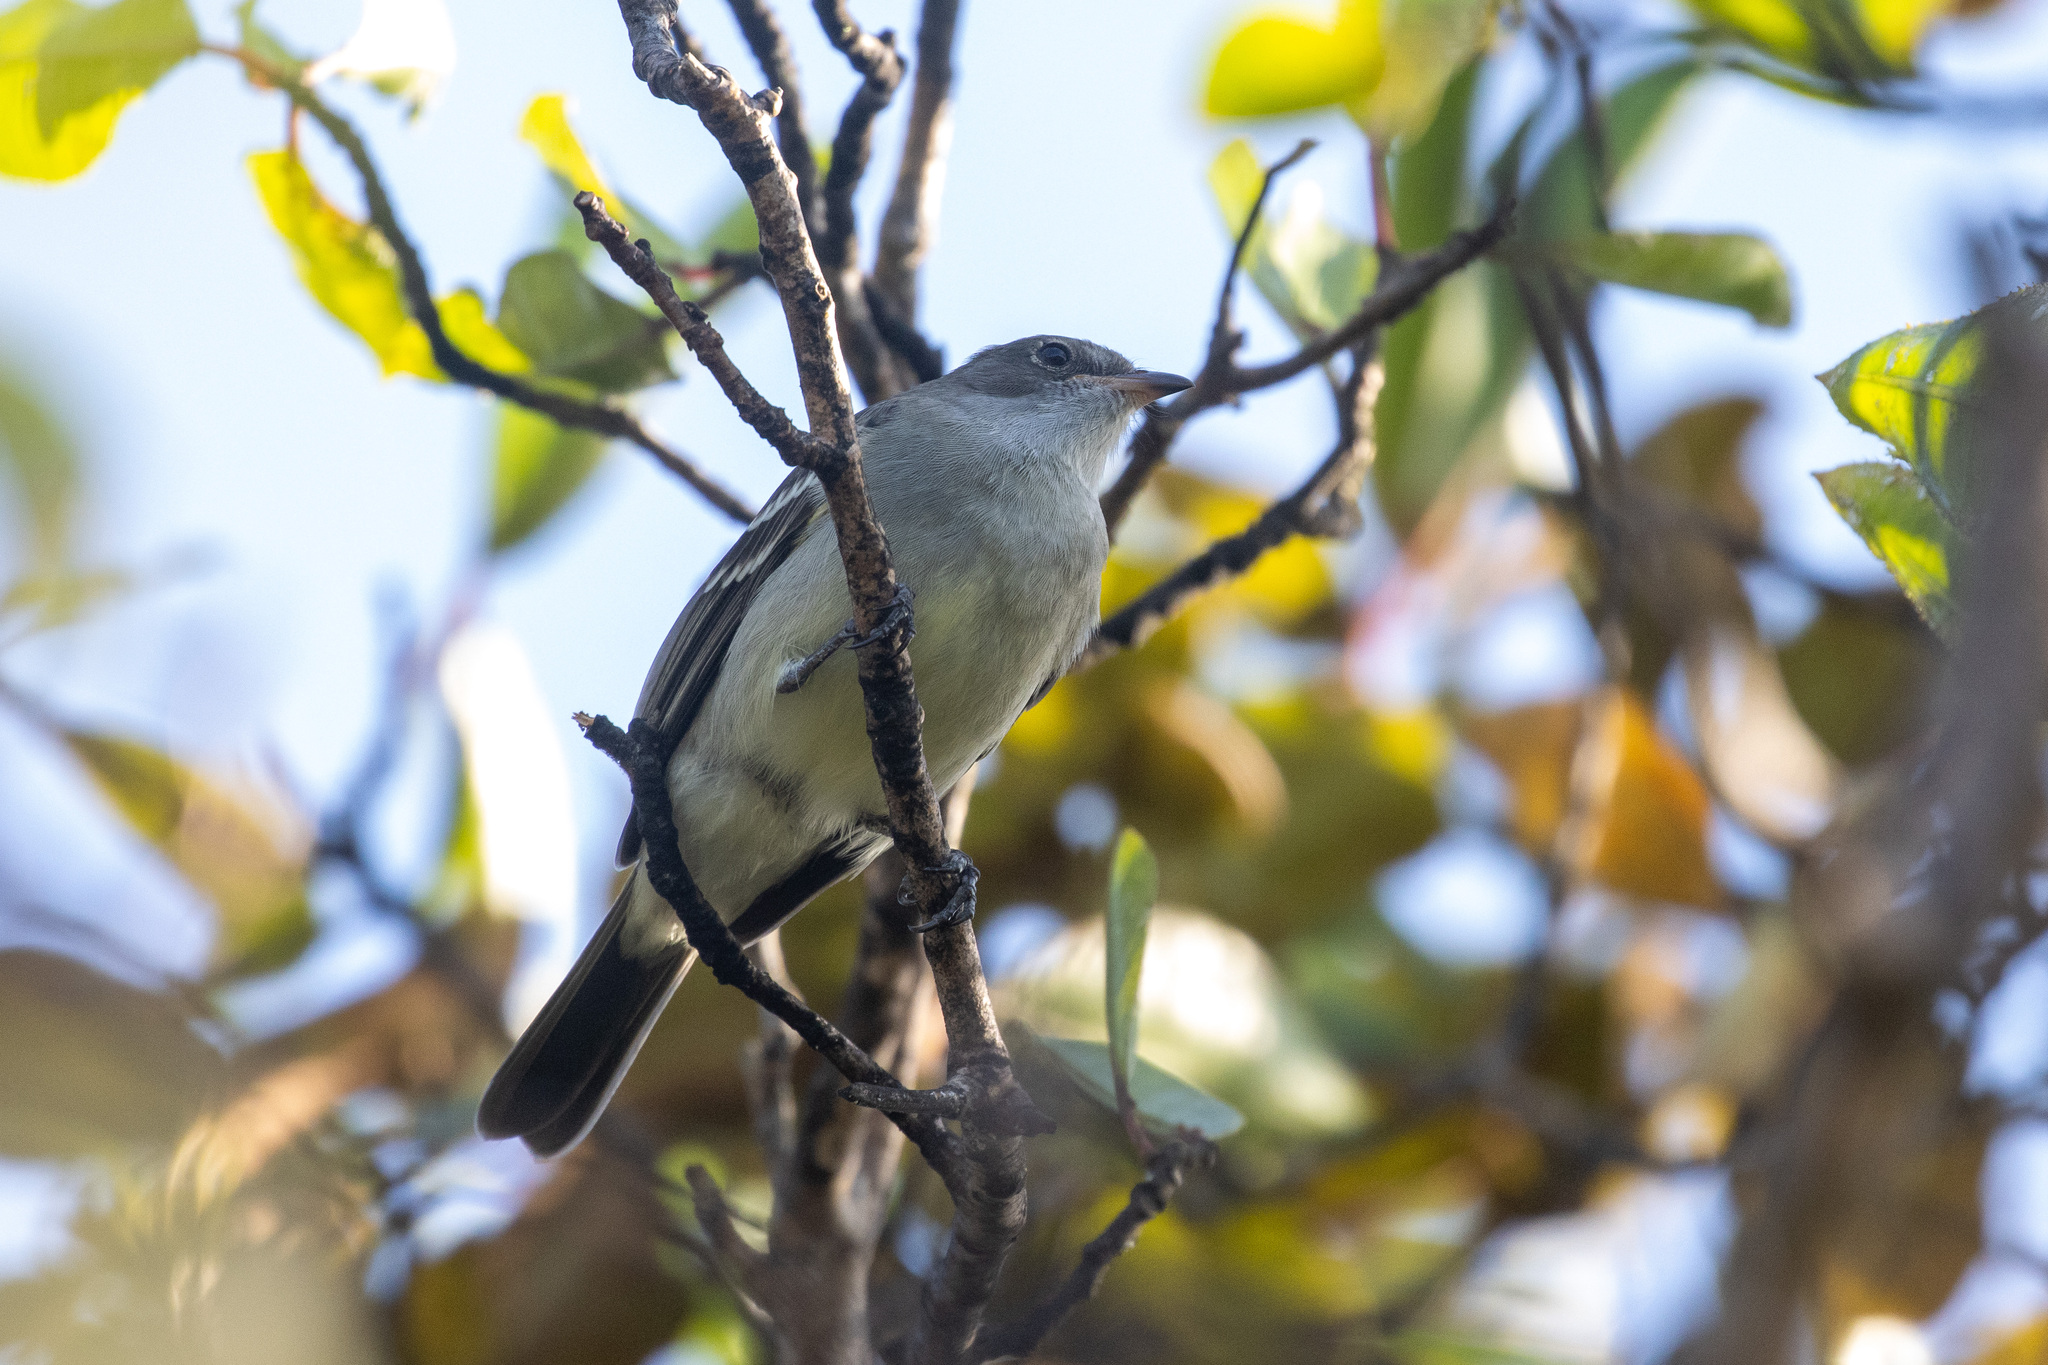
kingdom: Animalia
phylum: Chordata
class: Aves
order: Passeriformes
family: Tyrannidae
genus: Elaenia
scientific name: Elaenia ridleyana
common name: Noronha elaenia
